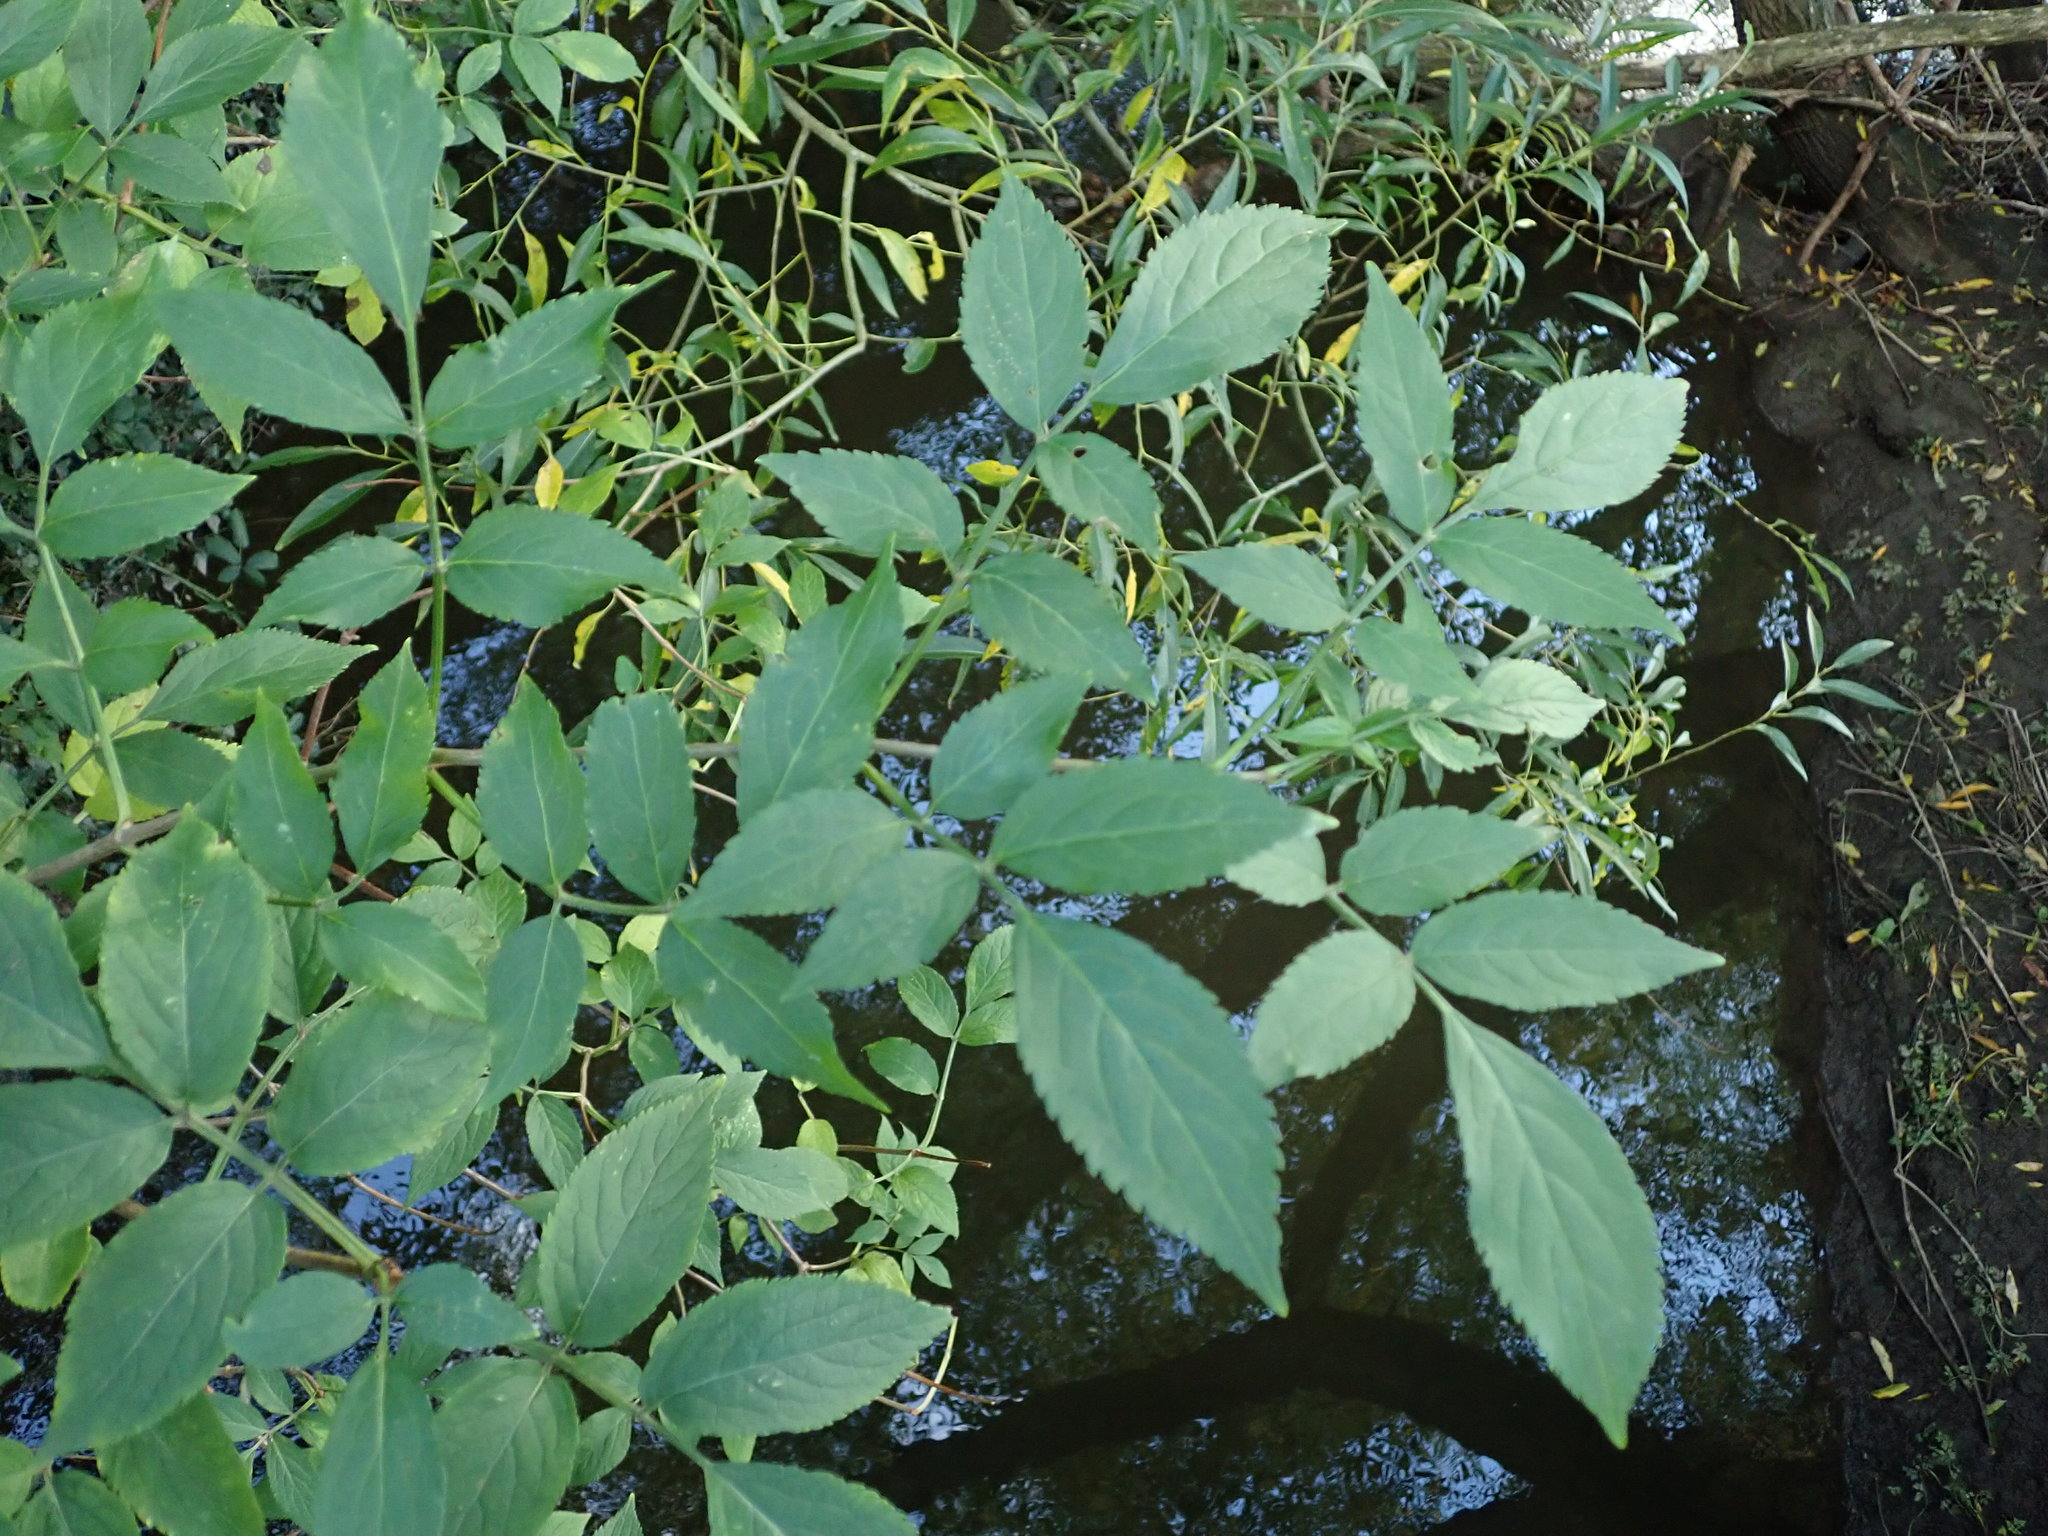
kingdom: Plantae
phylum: Tracheophyta
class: Magnoliopsida
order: Dipsacales
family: Viburnaceae
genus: Sambucus
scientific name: Sambucus nigra
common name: Elder
